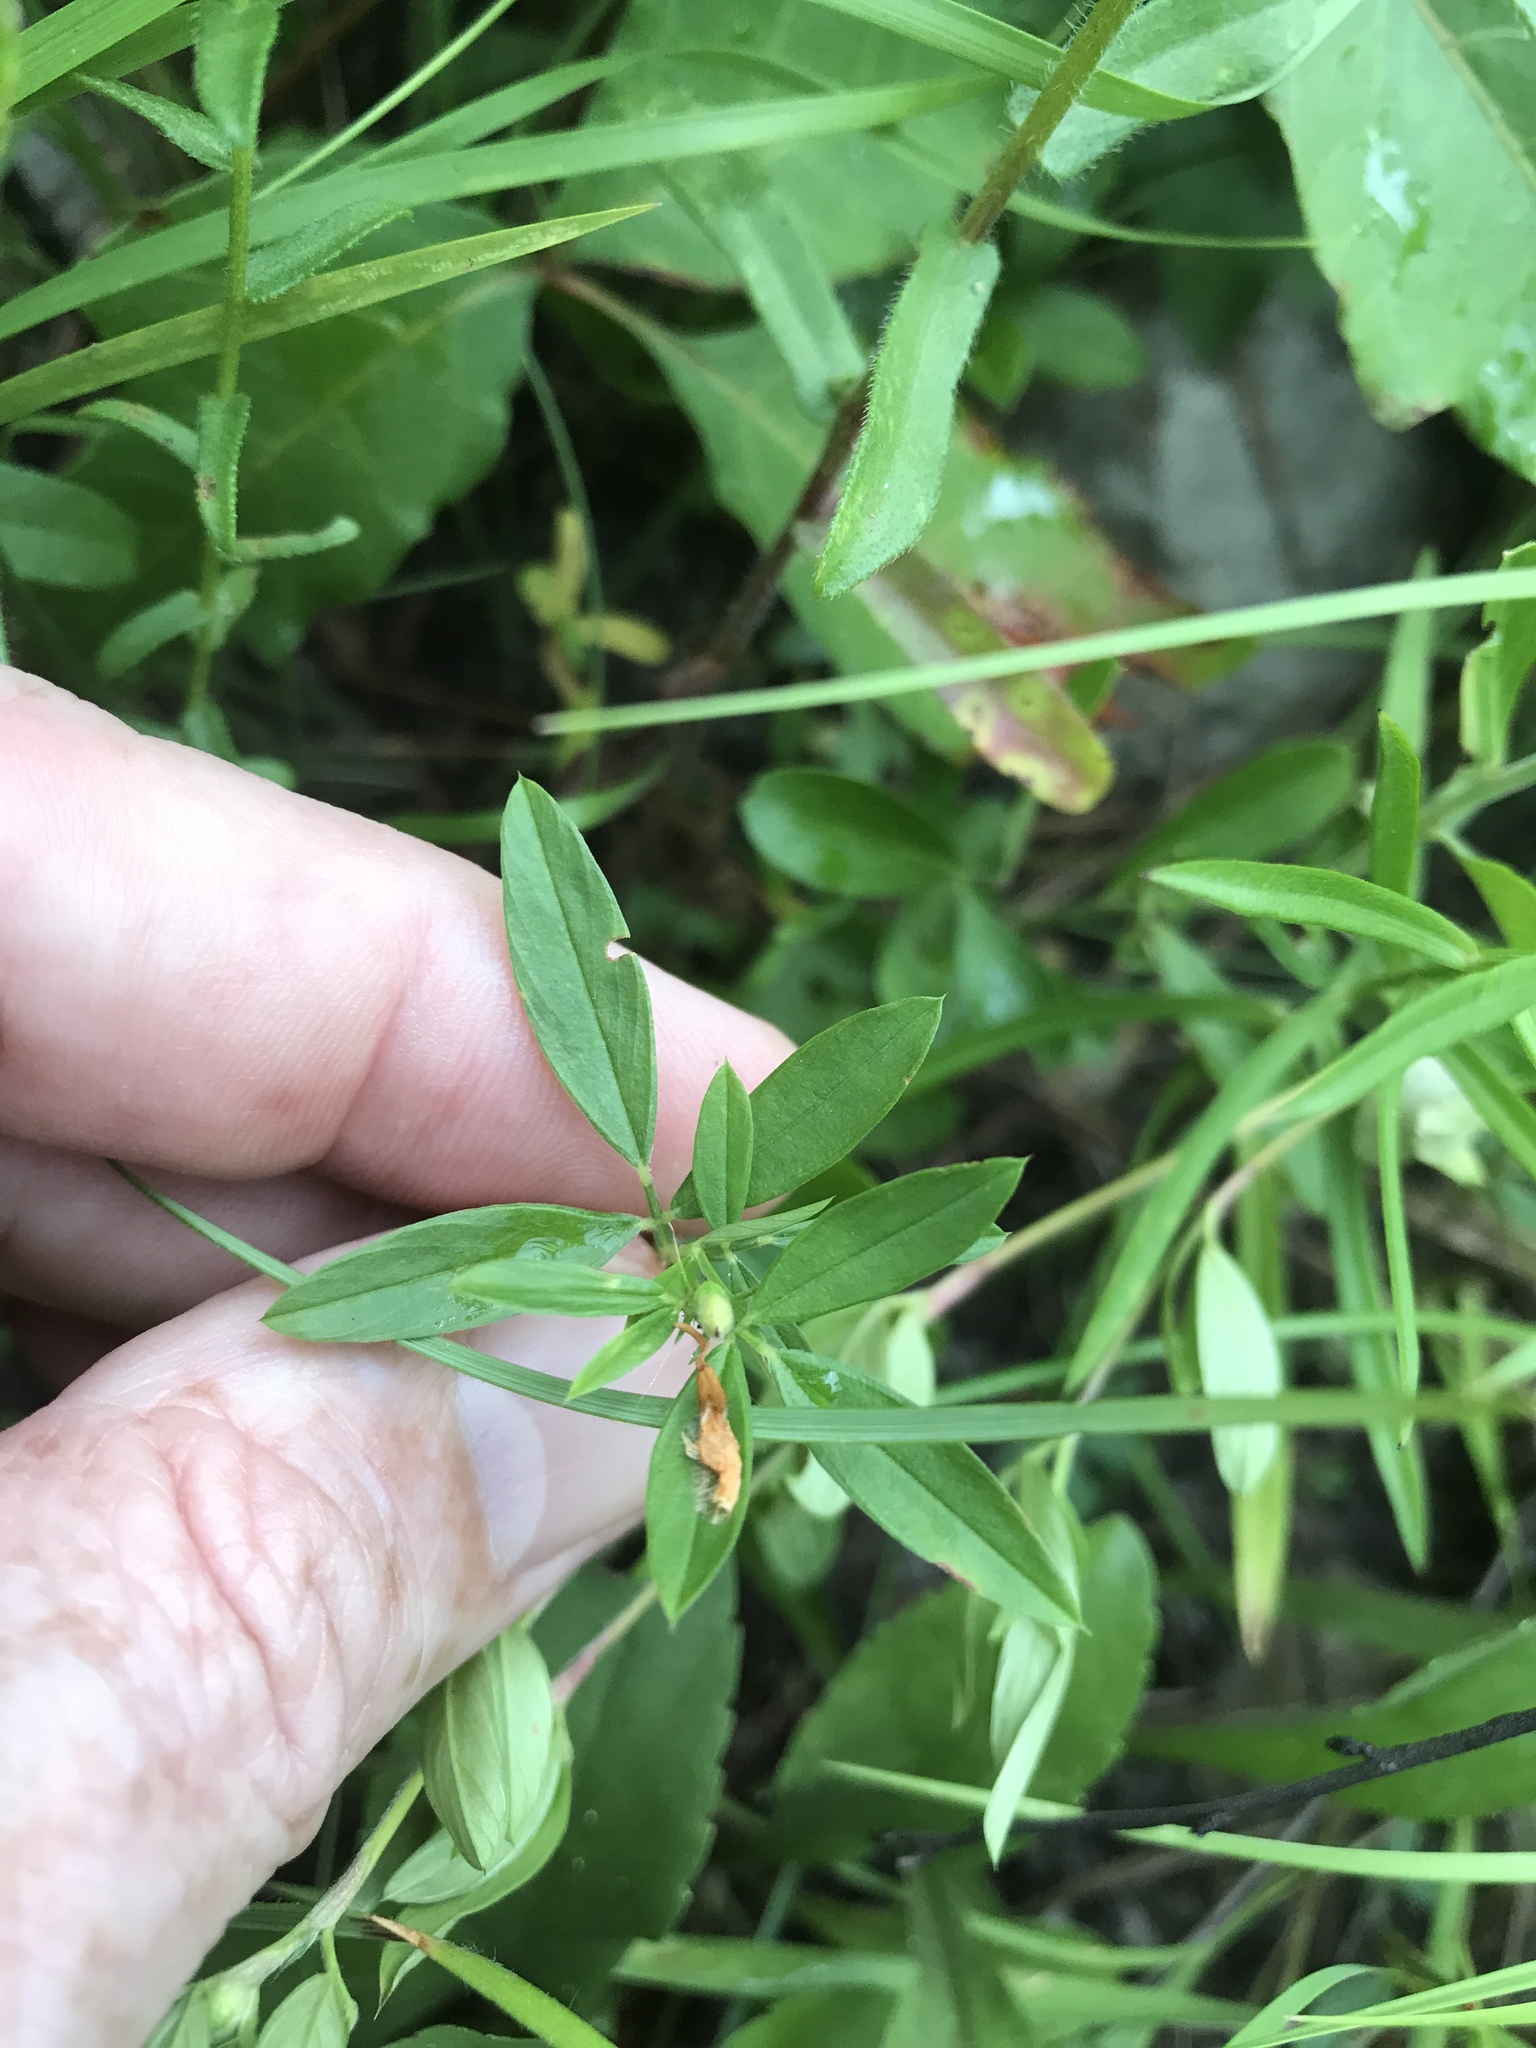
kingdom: Plantae
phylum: Tracheophyta
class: Magnoliopsida
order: Fabales
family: Fabaceae
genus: Stylosanthes
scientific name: Stylosanthes biflora
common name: Two-flower pencil-flower
